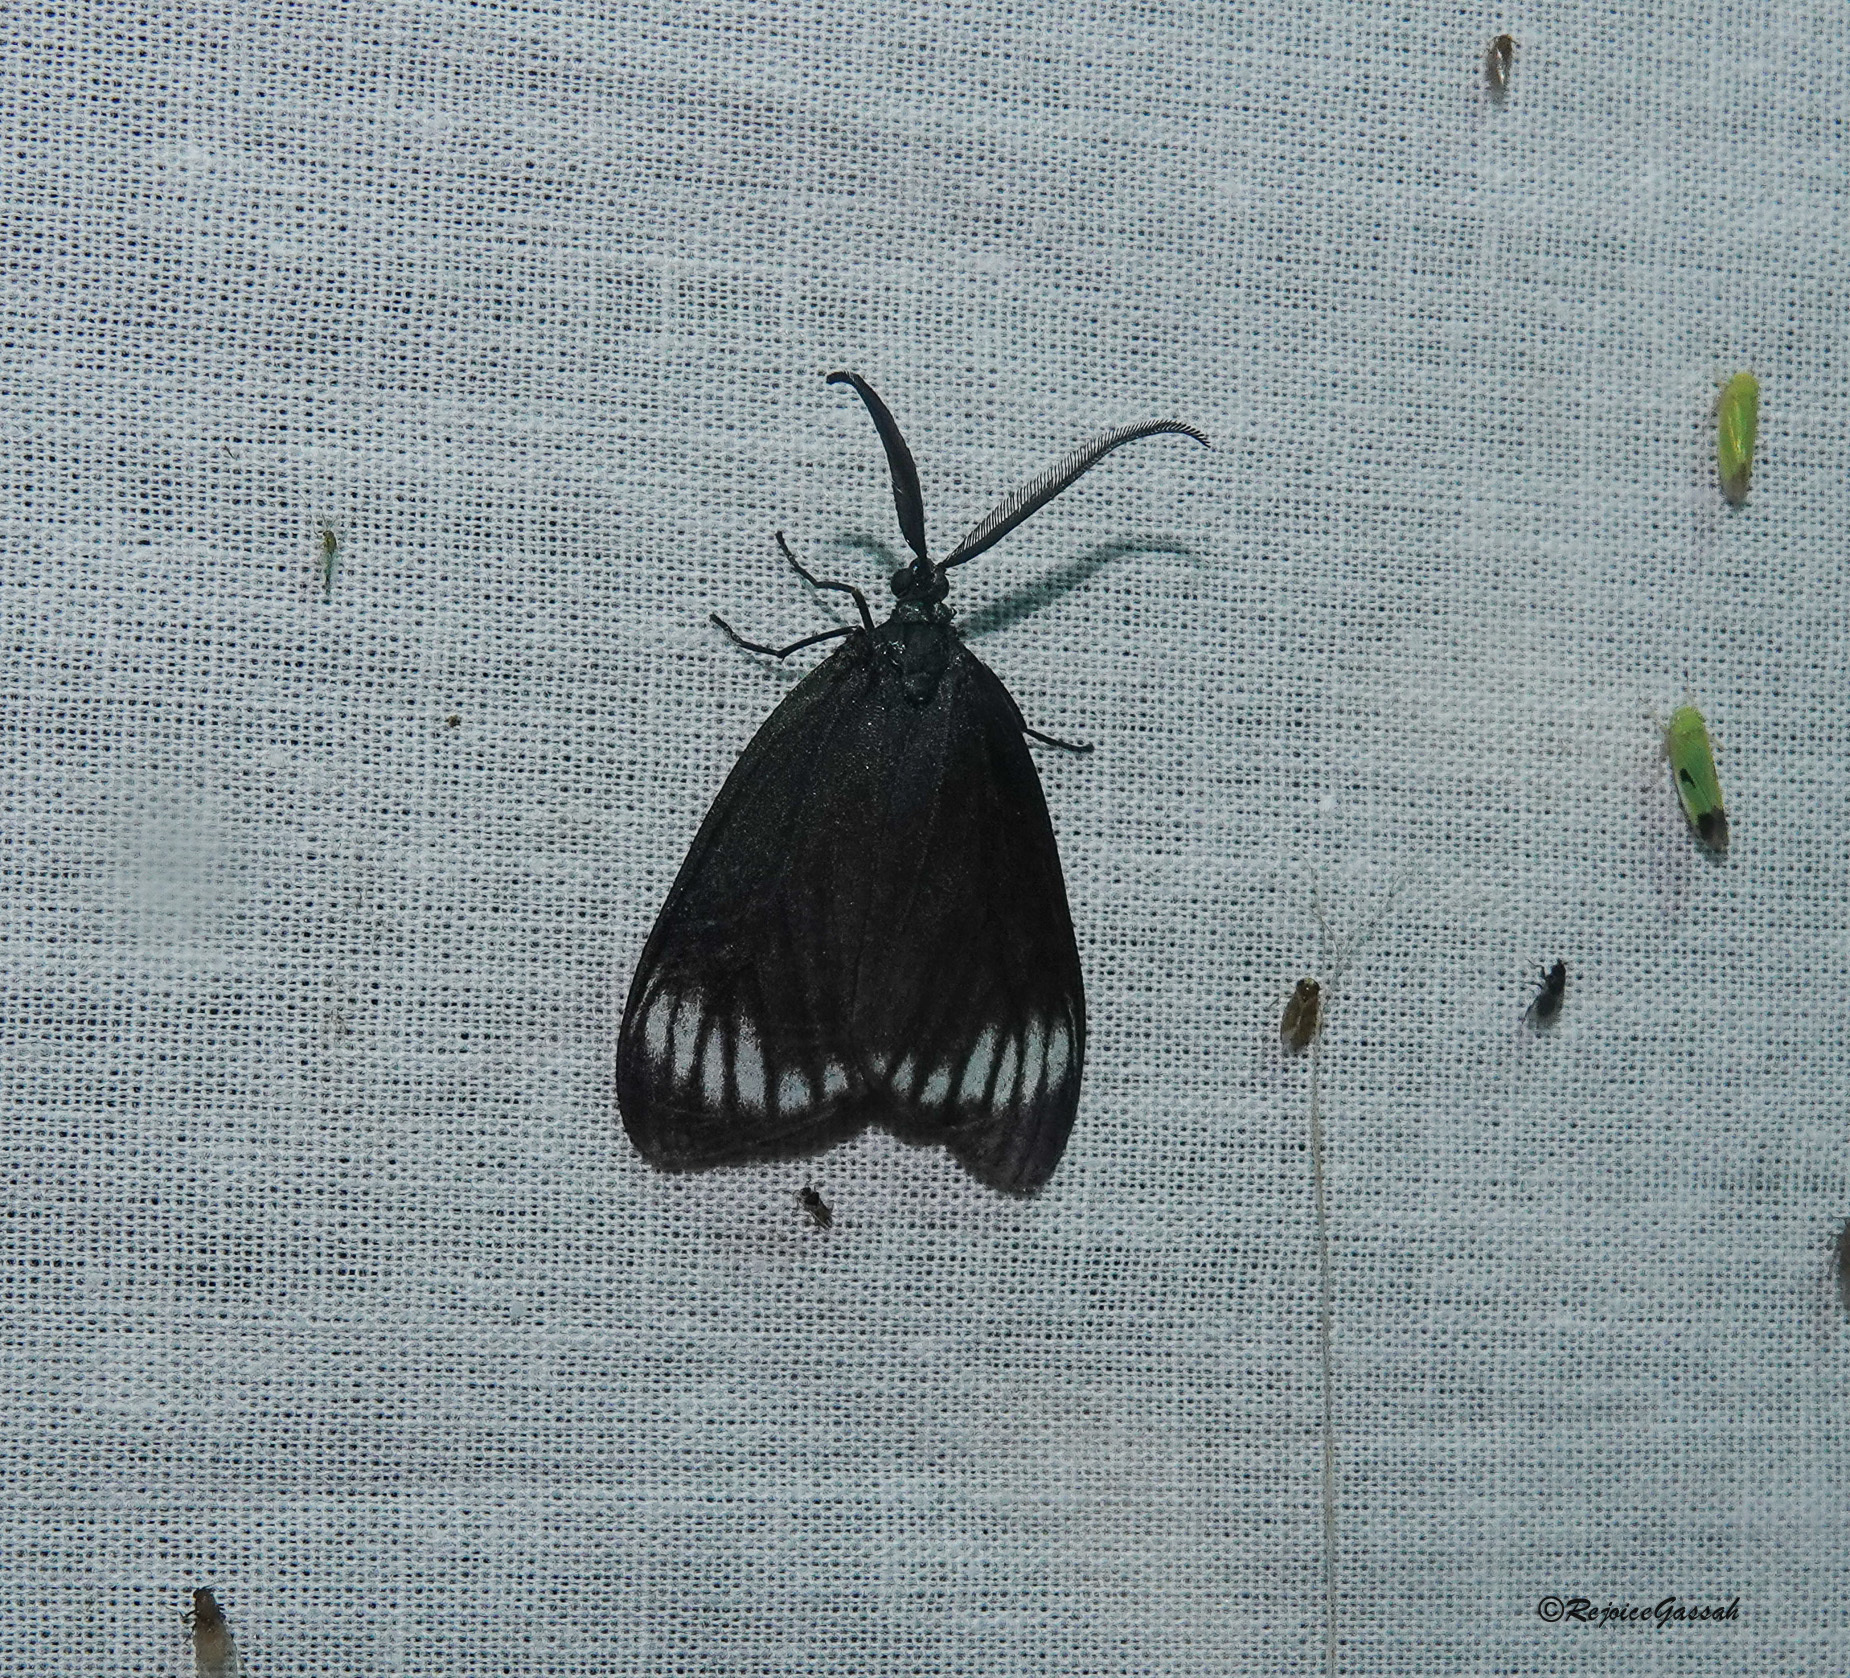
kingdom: Animalia
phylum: Arthropoda
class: Insecta
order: Lepidoptera
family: Zygaenidae
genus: Cyclosia
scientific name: Cyclosia panthona
